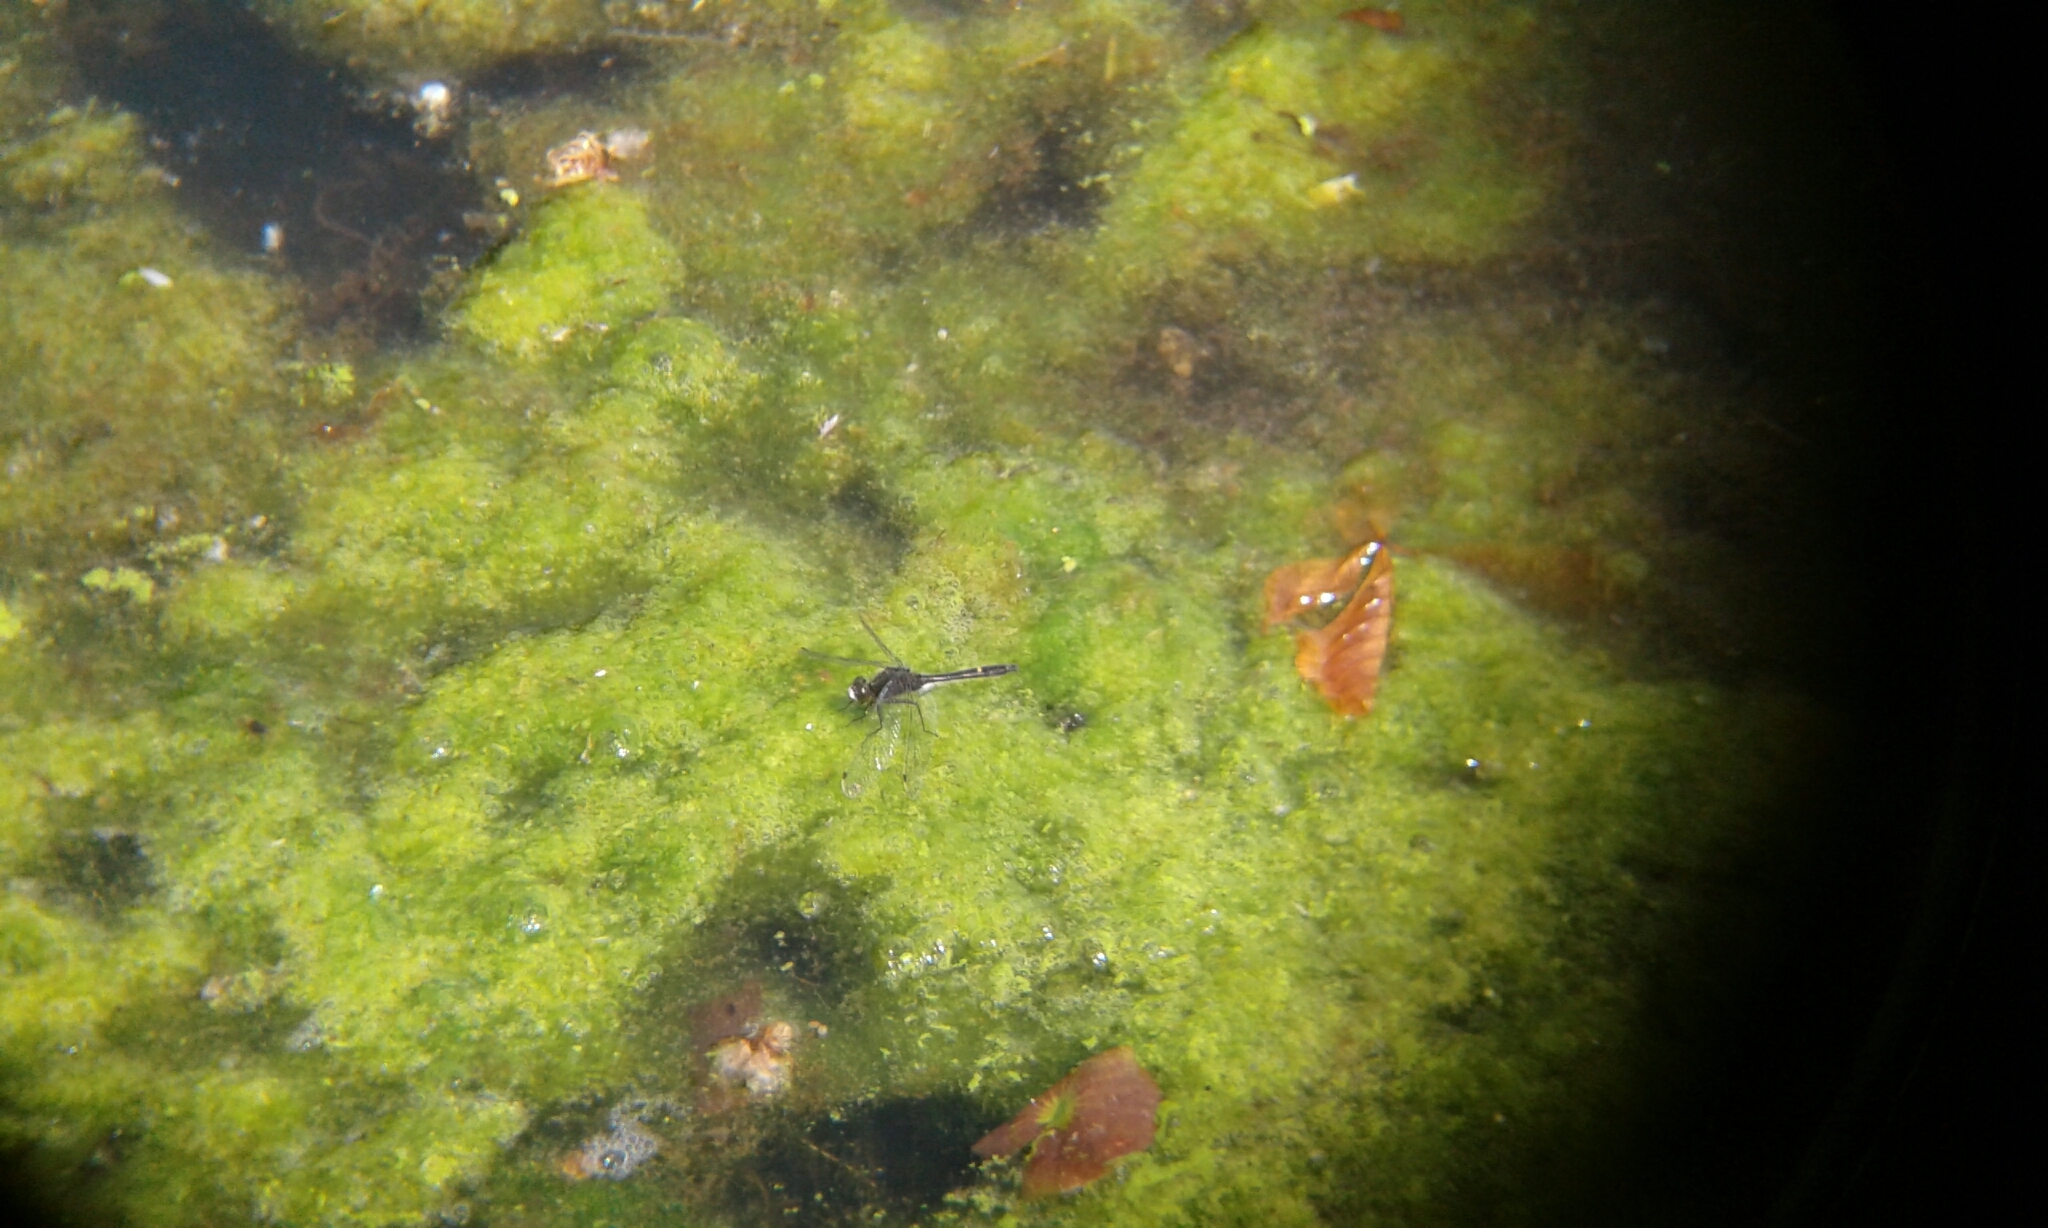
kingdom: Animalia
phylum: Arthropoda
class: Insecta
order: Odonata
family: Libellulidae
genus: Leucorrhinia
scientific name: Leucorrhinia intacta
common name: Dot-tailed whiteface
